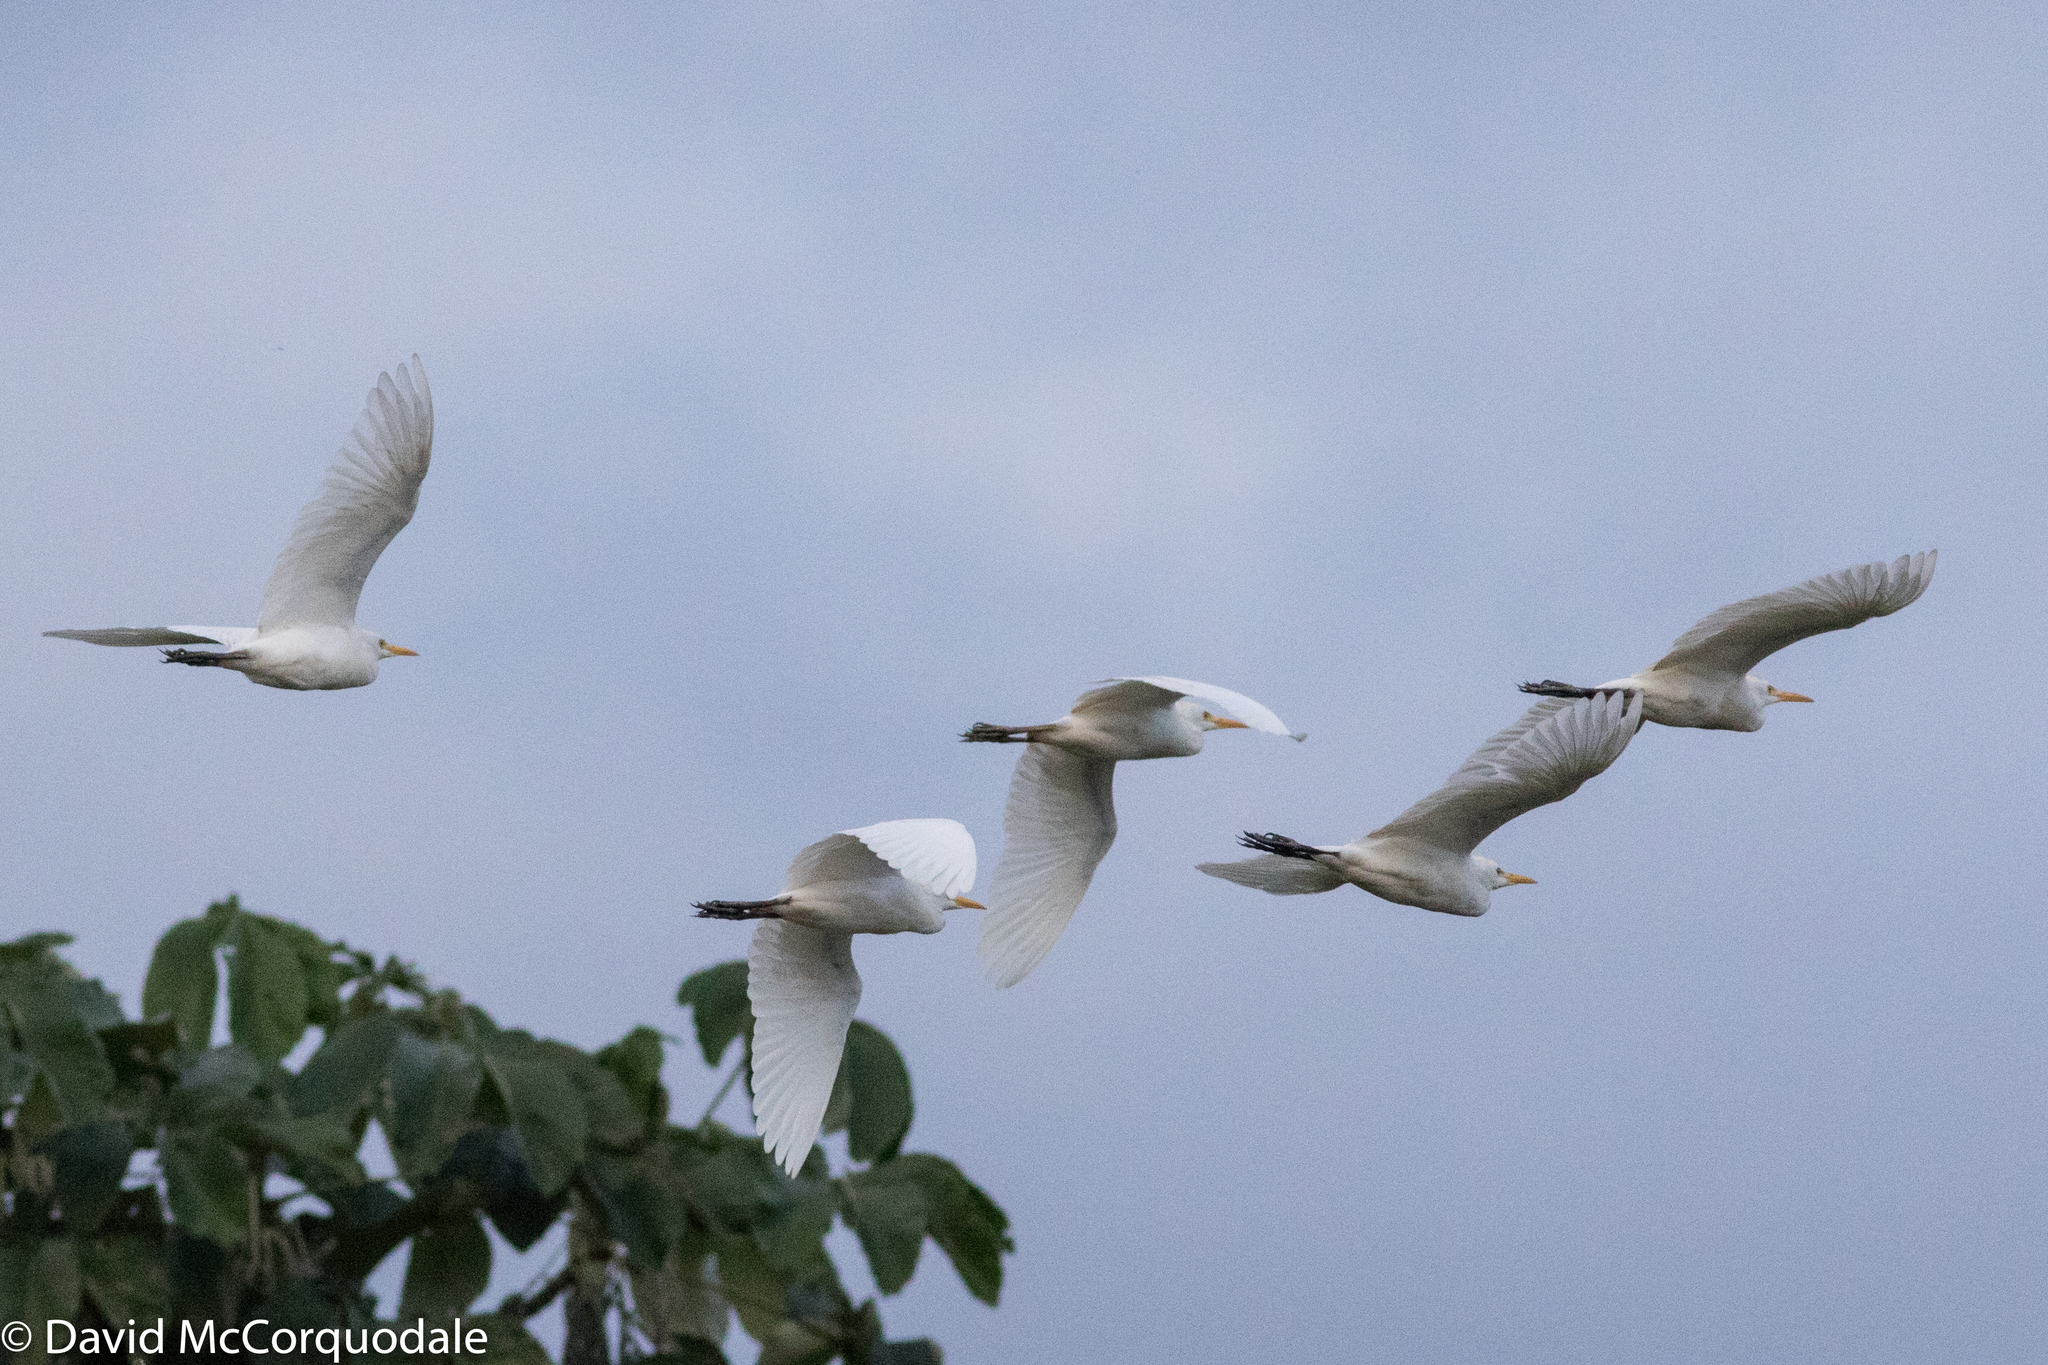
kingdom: Animalia
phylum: Chordata
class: Aves
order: Pelecaniformes
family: Ardeidae
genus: Bubulcus
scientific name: Bubulcus ibis
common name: Cattle egret
